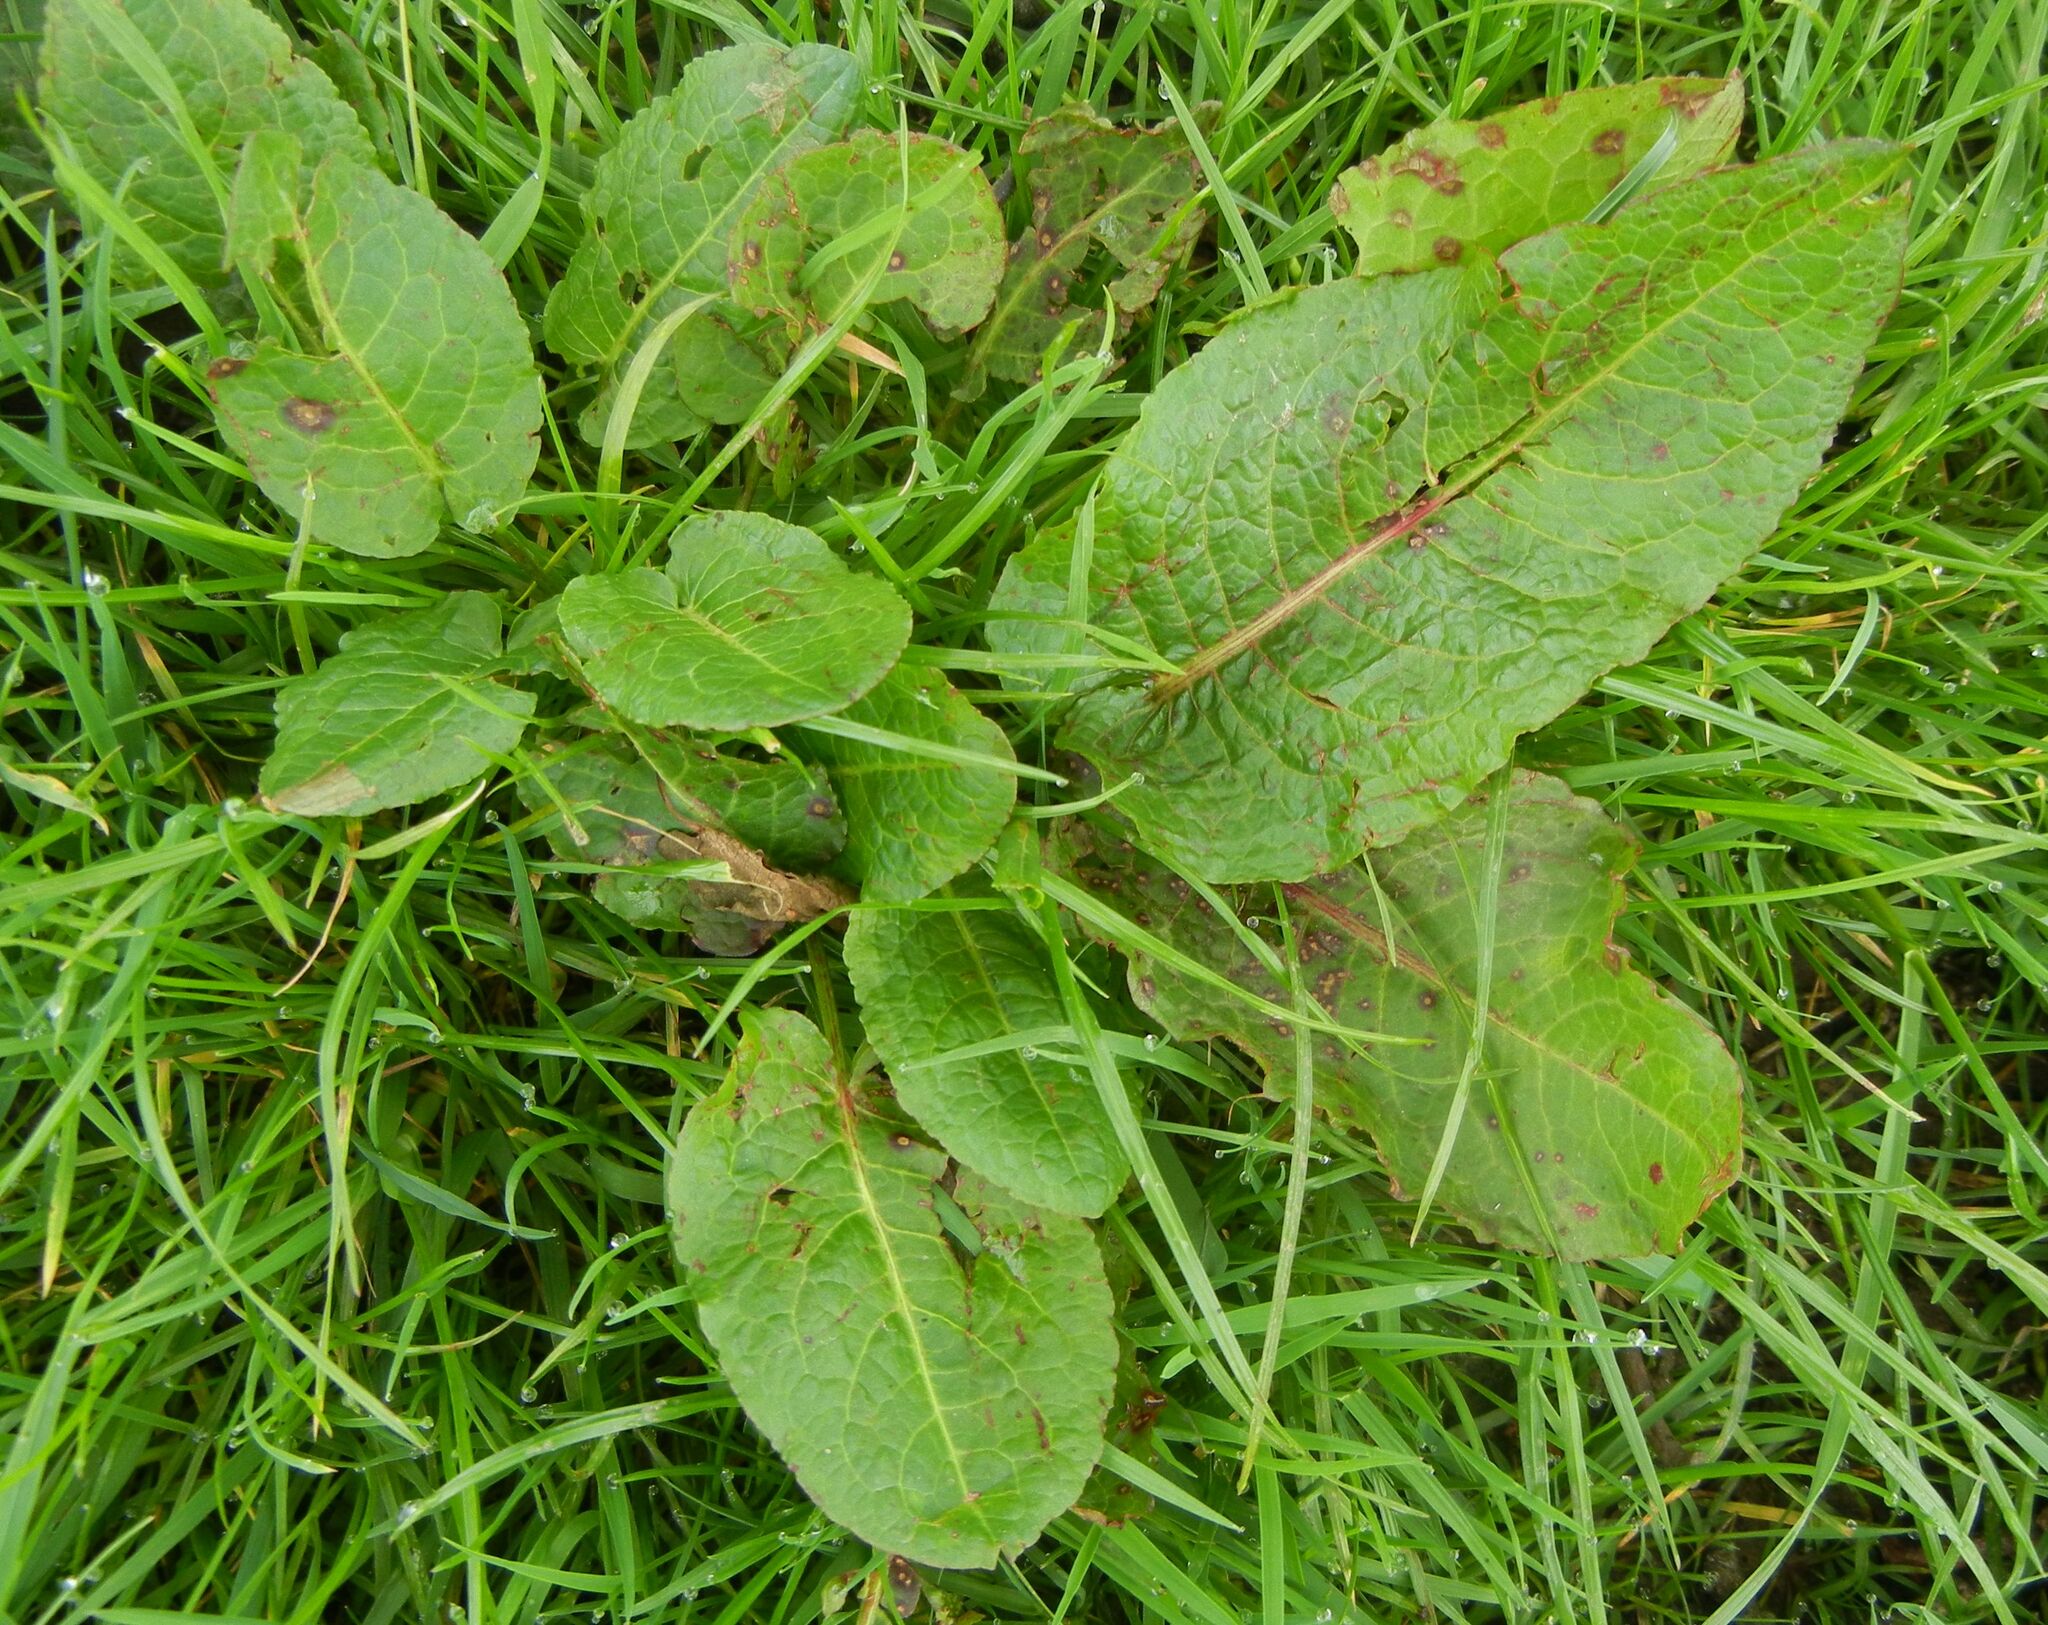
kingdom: Plantae
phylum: Tracheophyta
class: Magnoliopsida
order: Caryophyllales
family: Polygonaceae
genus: Rumex
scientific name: Rumex obtusifolius
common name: Bitter dock
